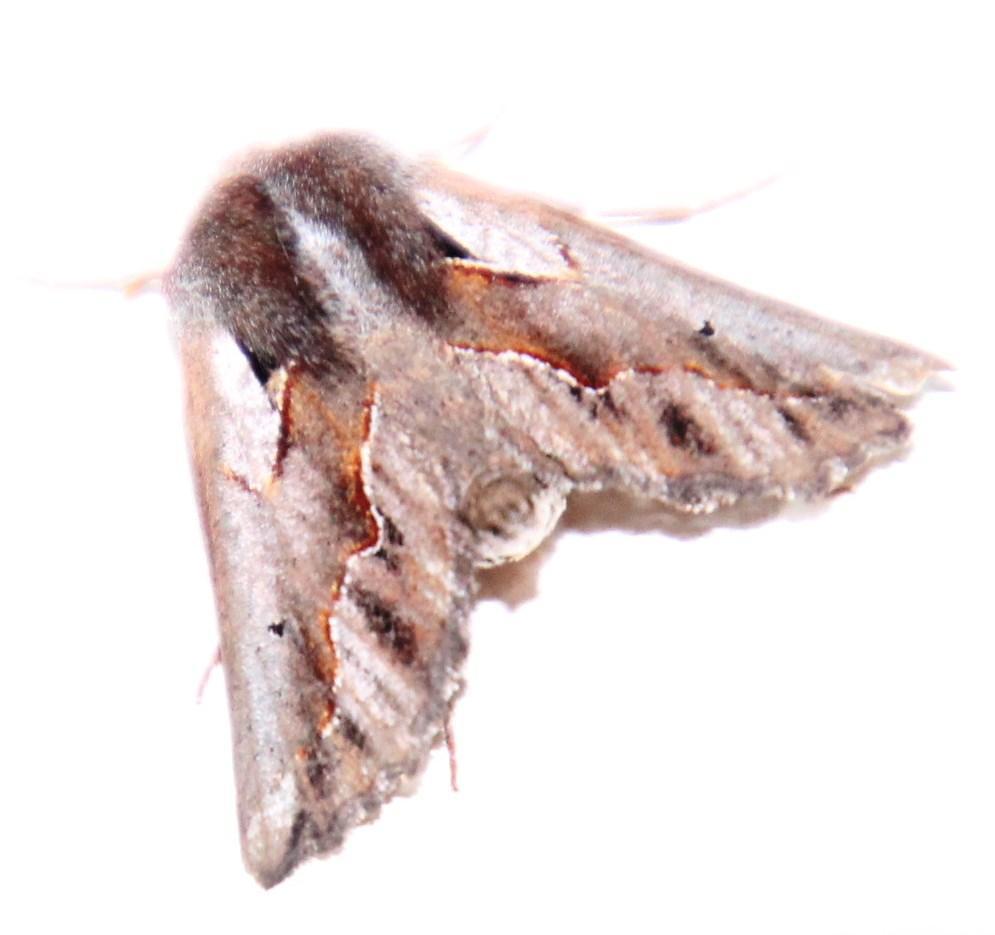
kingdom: Animalia
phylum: Arthropoda
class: Insecta
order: Lepidoptera
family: Geometridae
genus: Axiodes
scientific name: Axiodes
